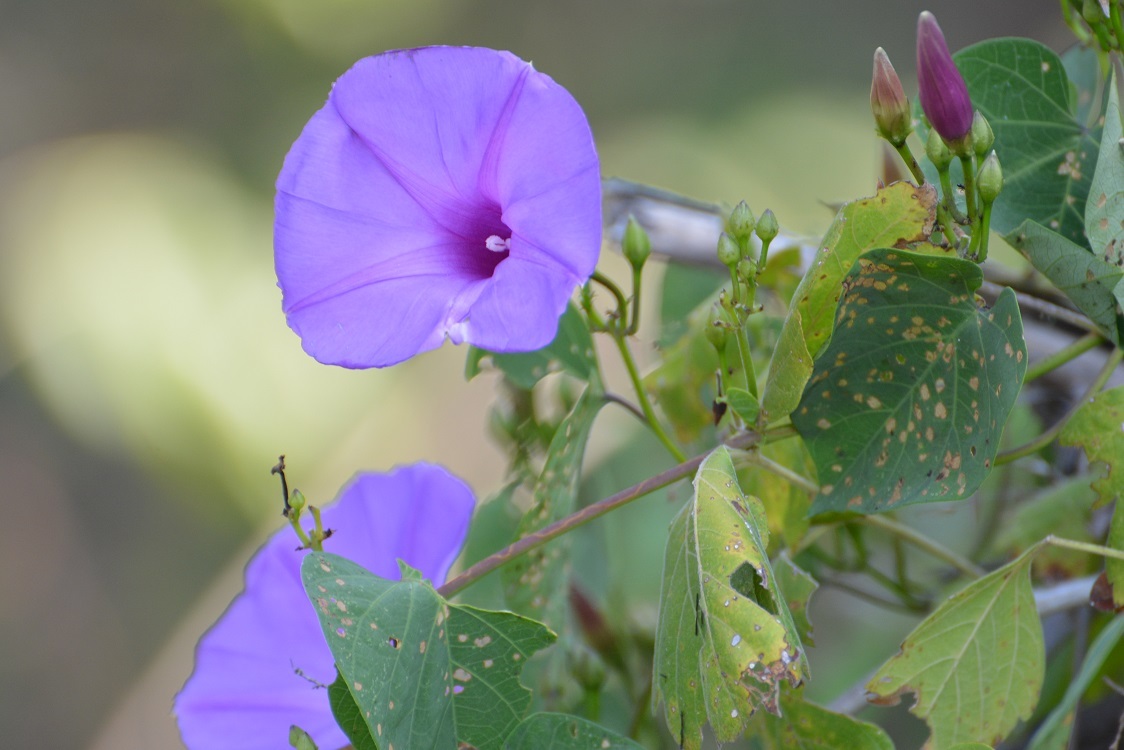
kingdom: Plantae
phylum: Tracheophyta
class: Magnoliopsida
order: Solanales
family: Convolvulaceae
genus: Ipomoea
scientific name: Ipomoea pedicellaris
